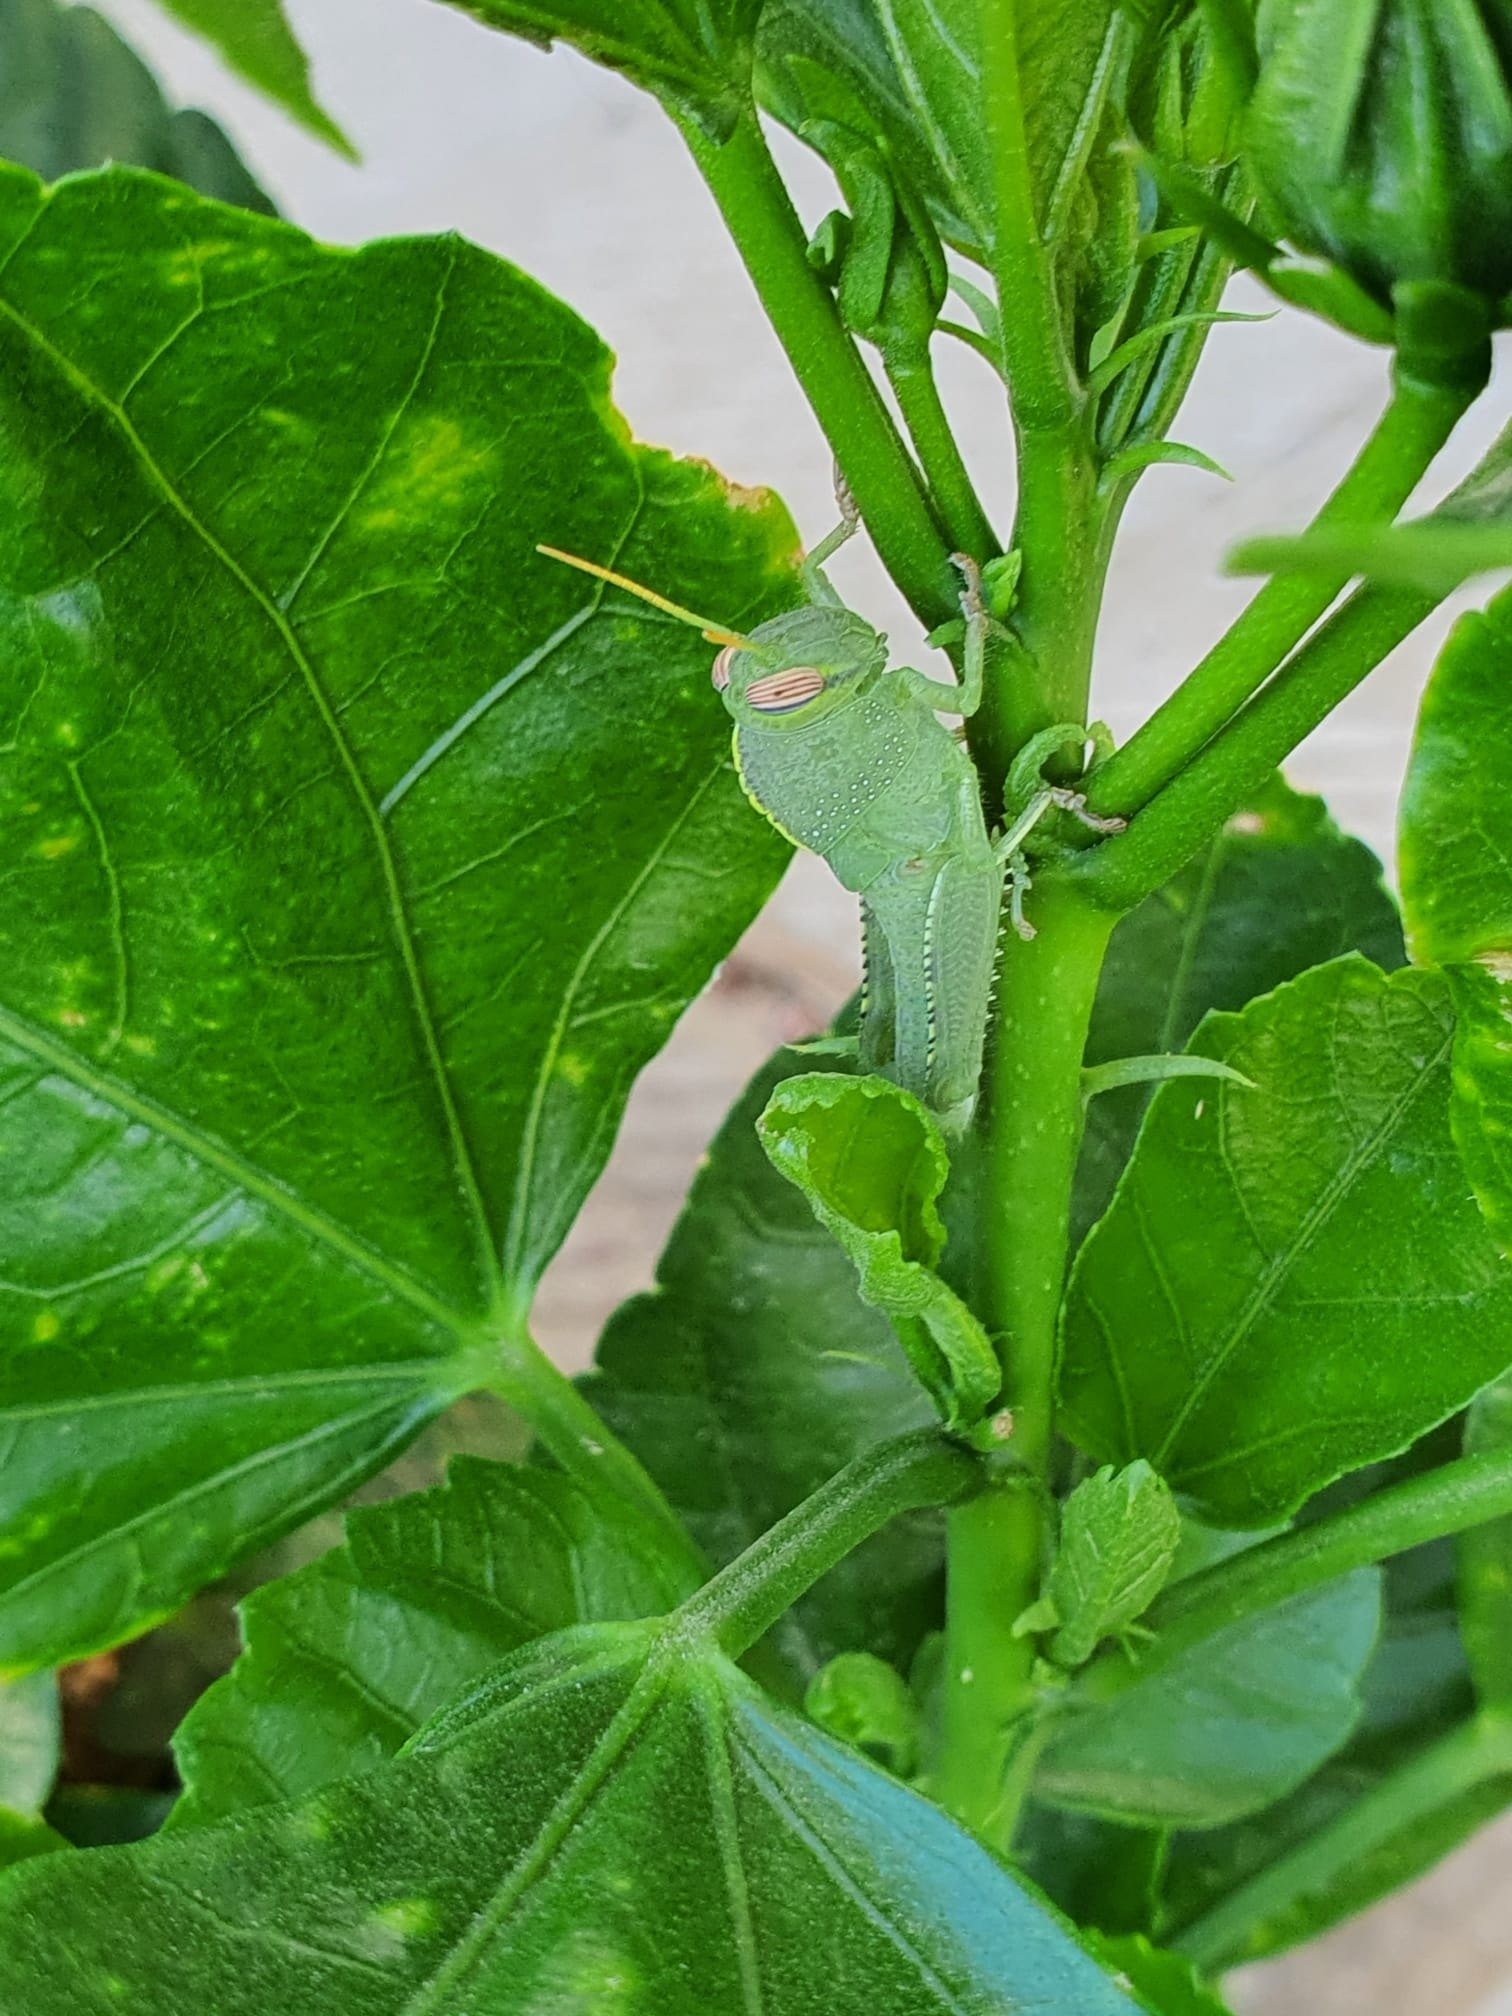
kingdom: Animalia
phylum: Arthropoda
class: Insecta
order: Orthoptera
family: Acrididae
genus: Anacridium
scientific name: Anacridium aegyptium
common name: Egyptian grasshopper
